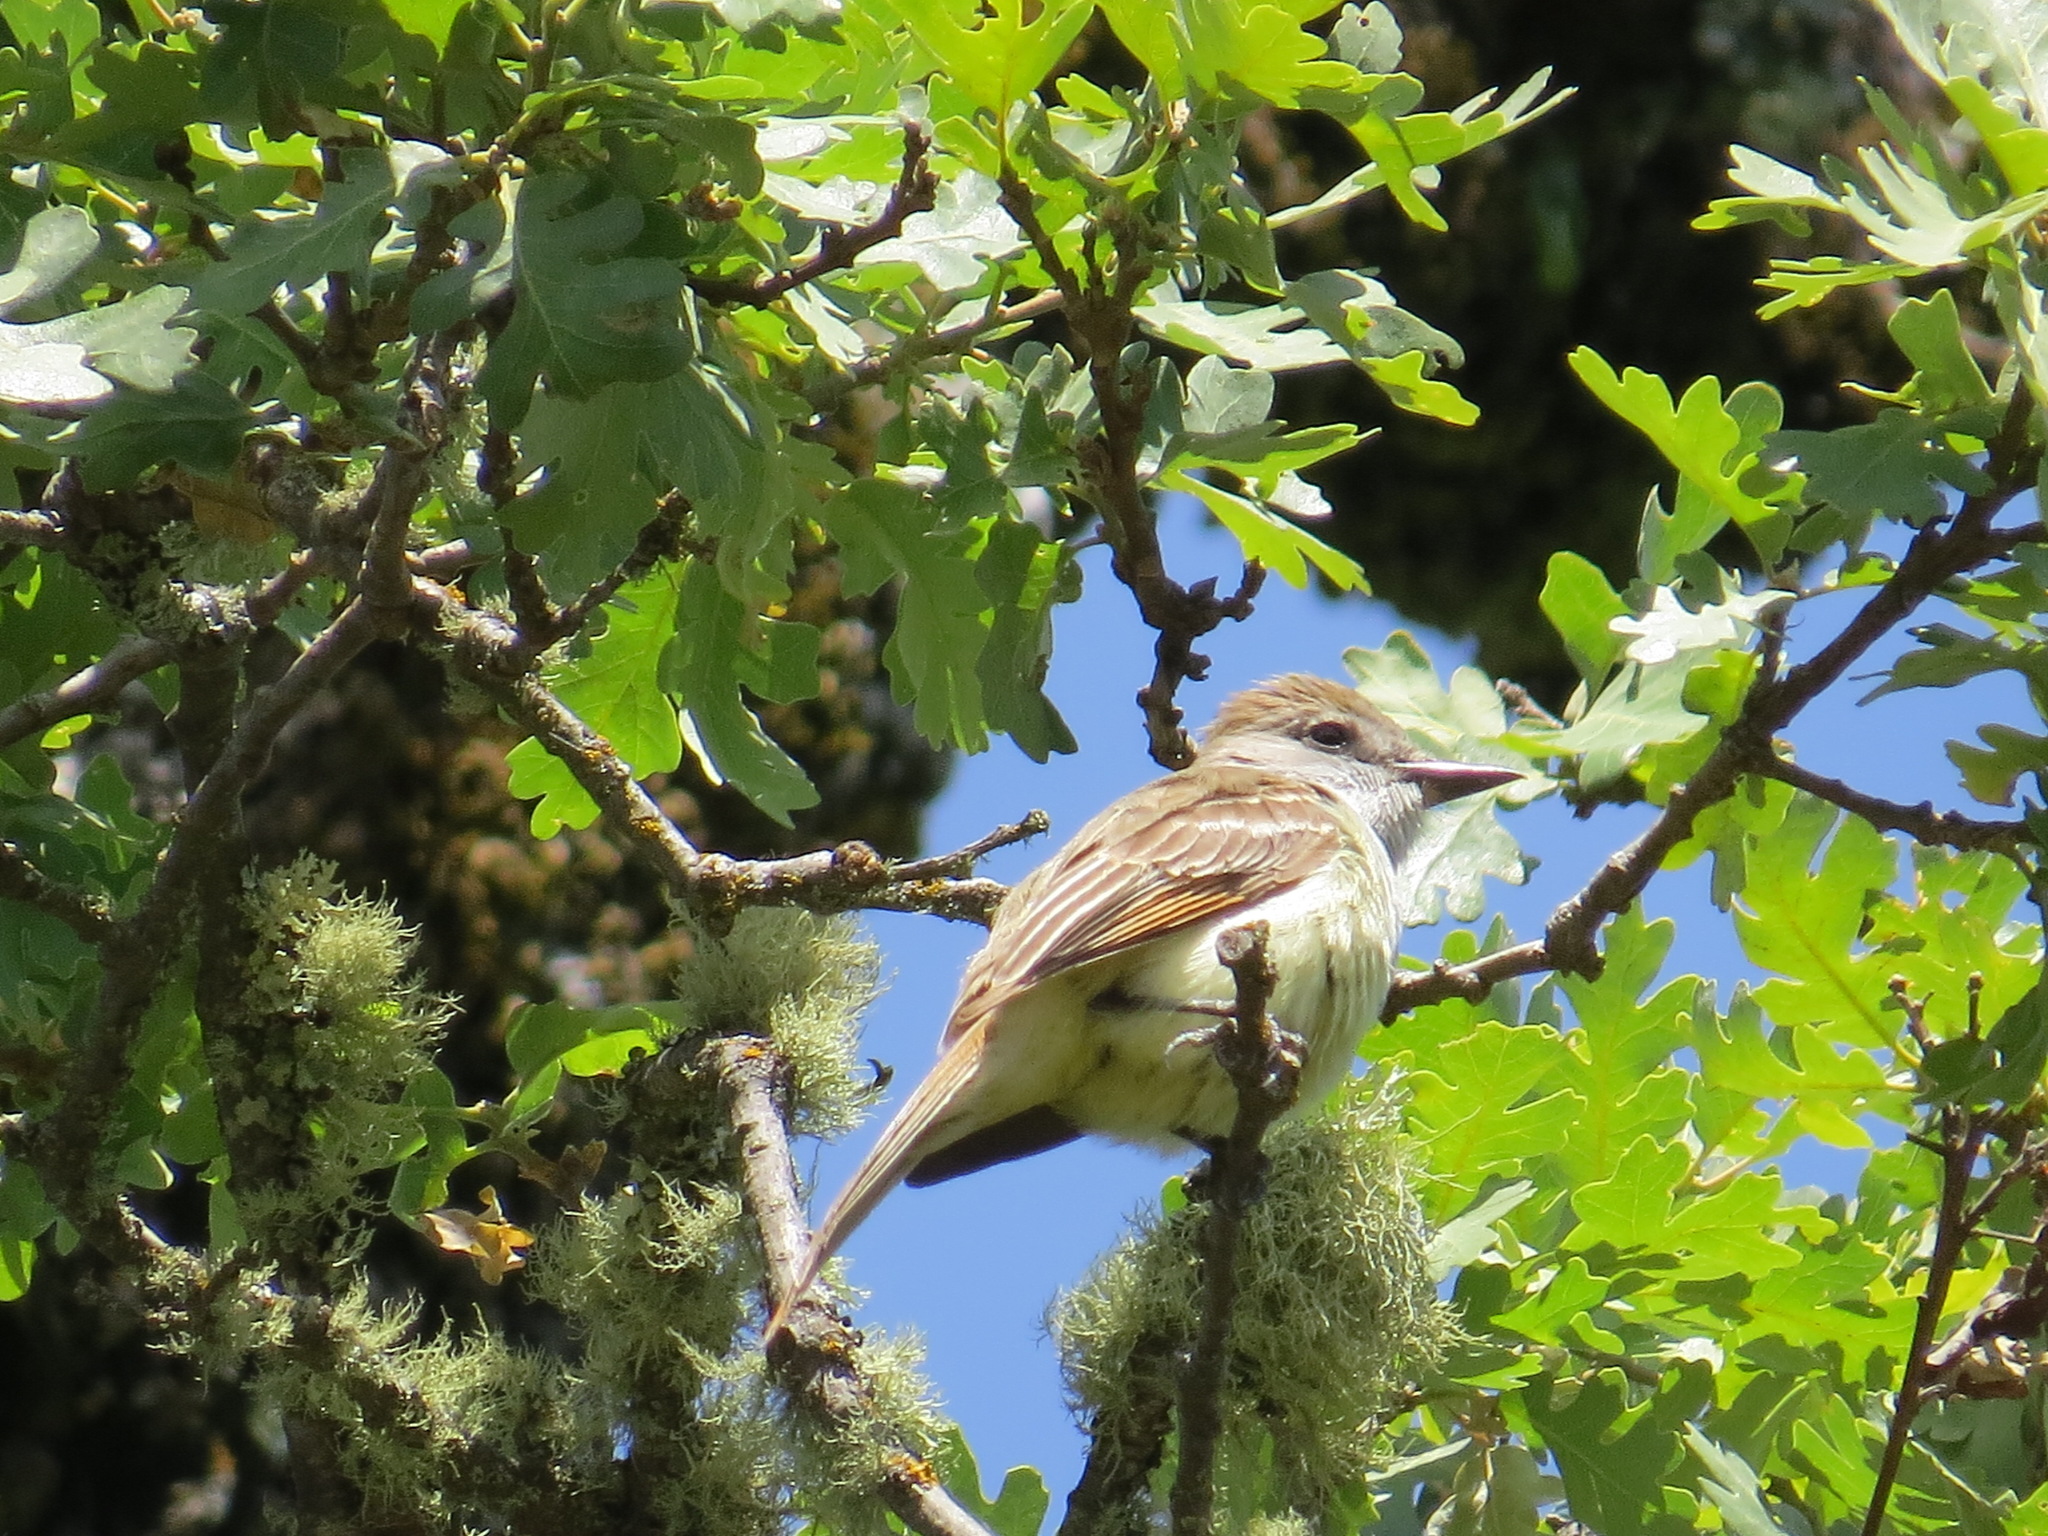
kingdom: Animalia
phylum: Chordata
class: Aves
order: Passeriformes
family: Tyrannidae
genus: Myiarchus
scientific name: Myiarchus cinerascens
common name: Ash-throated flycatcher
